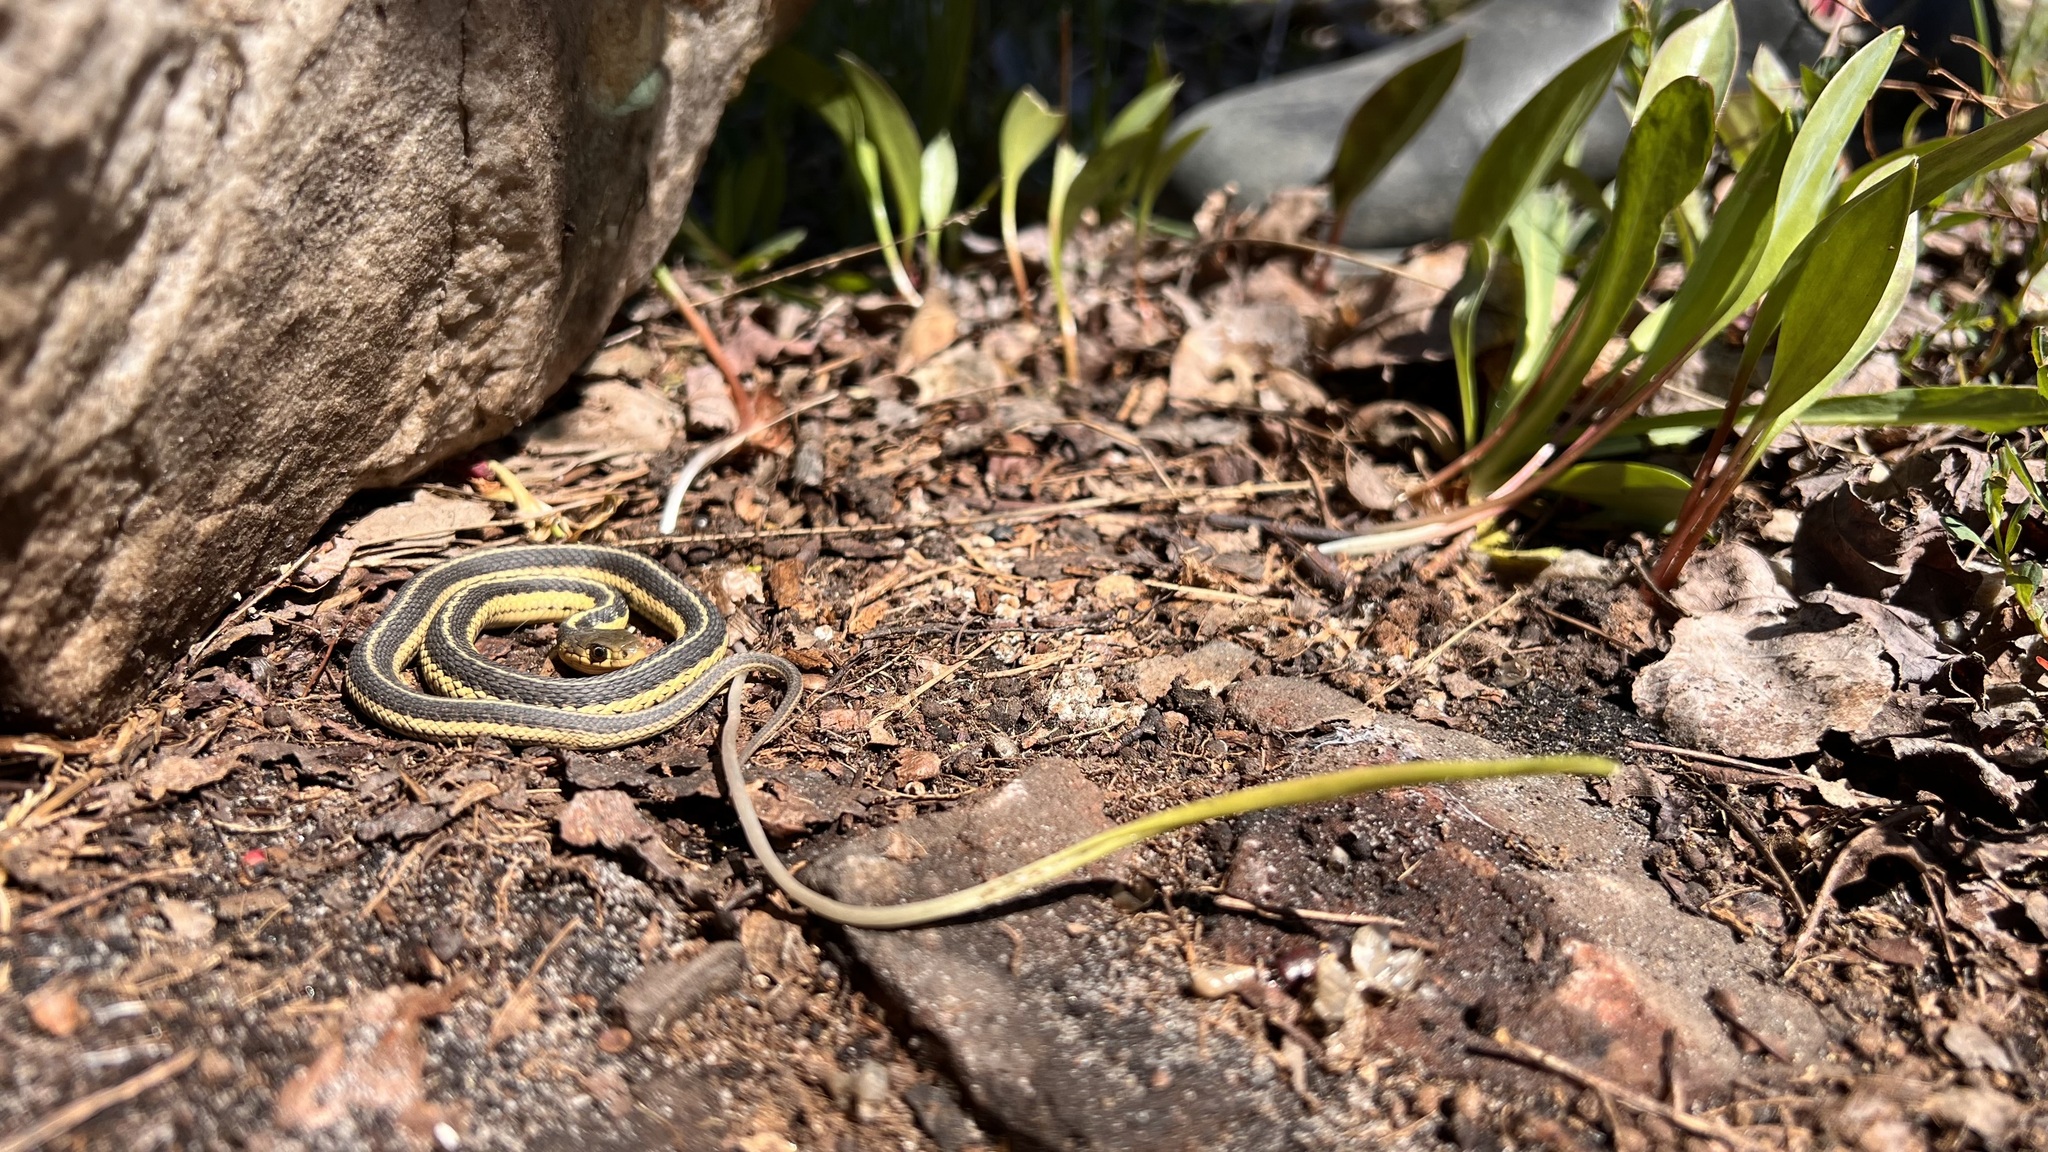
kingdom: Animalia
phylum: Chordata
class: Squamata
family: Colubridae
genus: Thamnophis
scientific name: Thamnophis sirtalis
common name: Common garter snake
